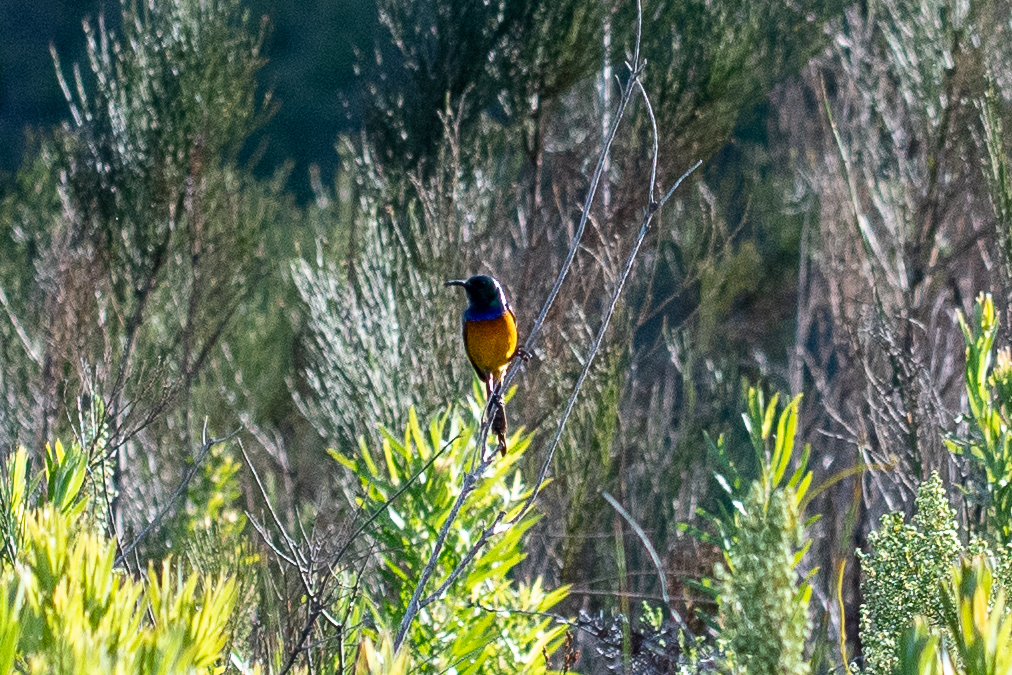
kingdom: Animalia
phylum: Chordata
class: Aves
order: Passeriformes
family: Nectariniidae
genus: Anthobaphes
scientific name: Anthobaphes violacea
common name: Orange-breasted sunbird
